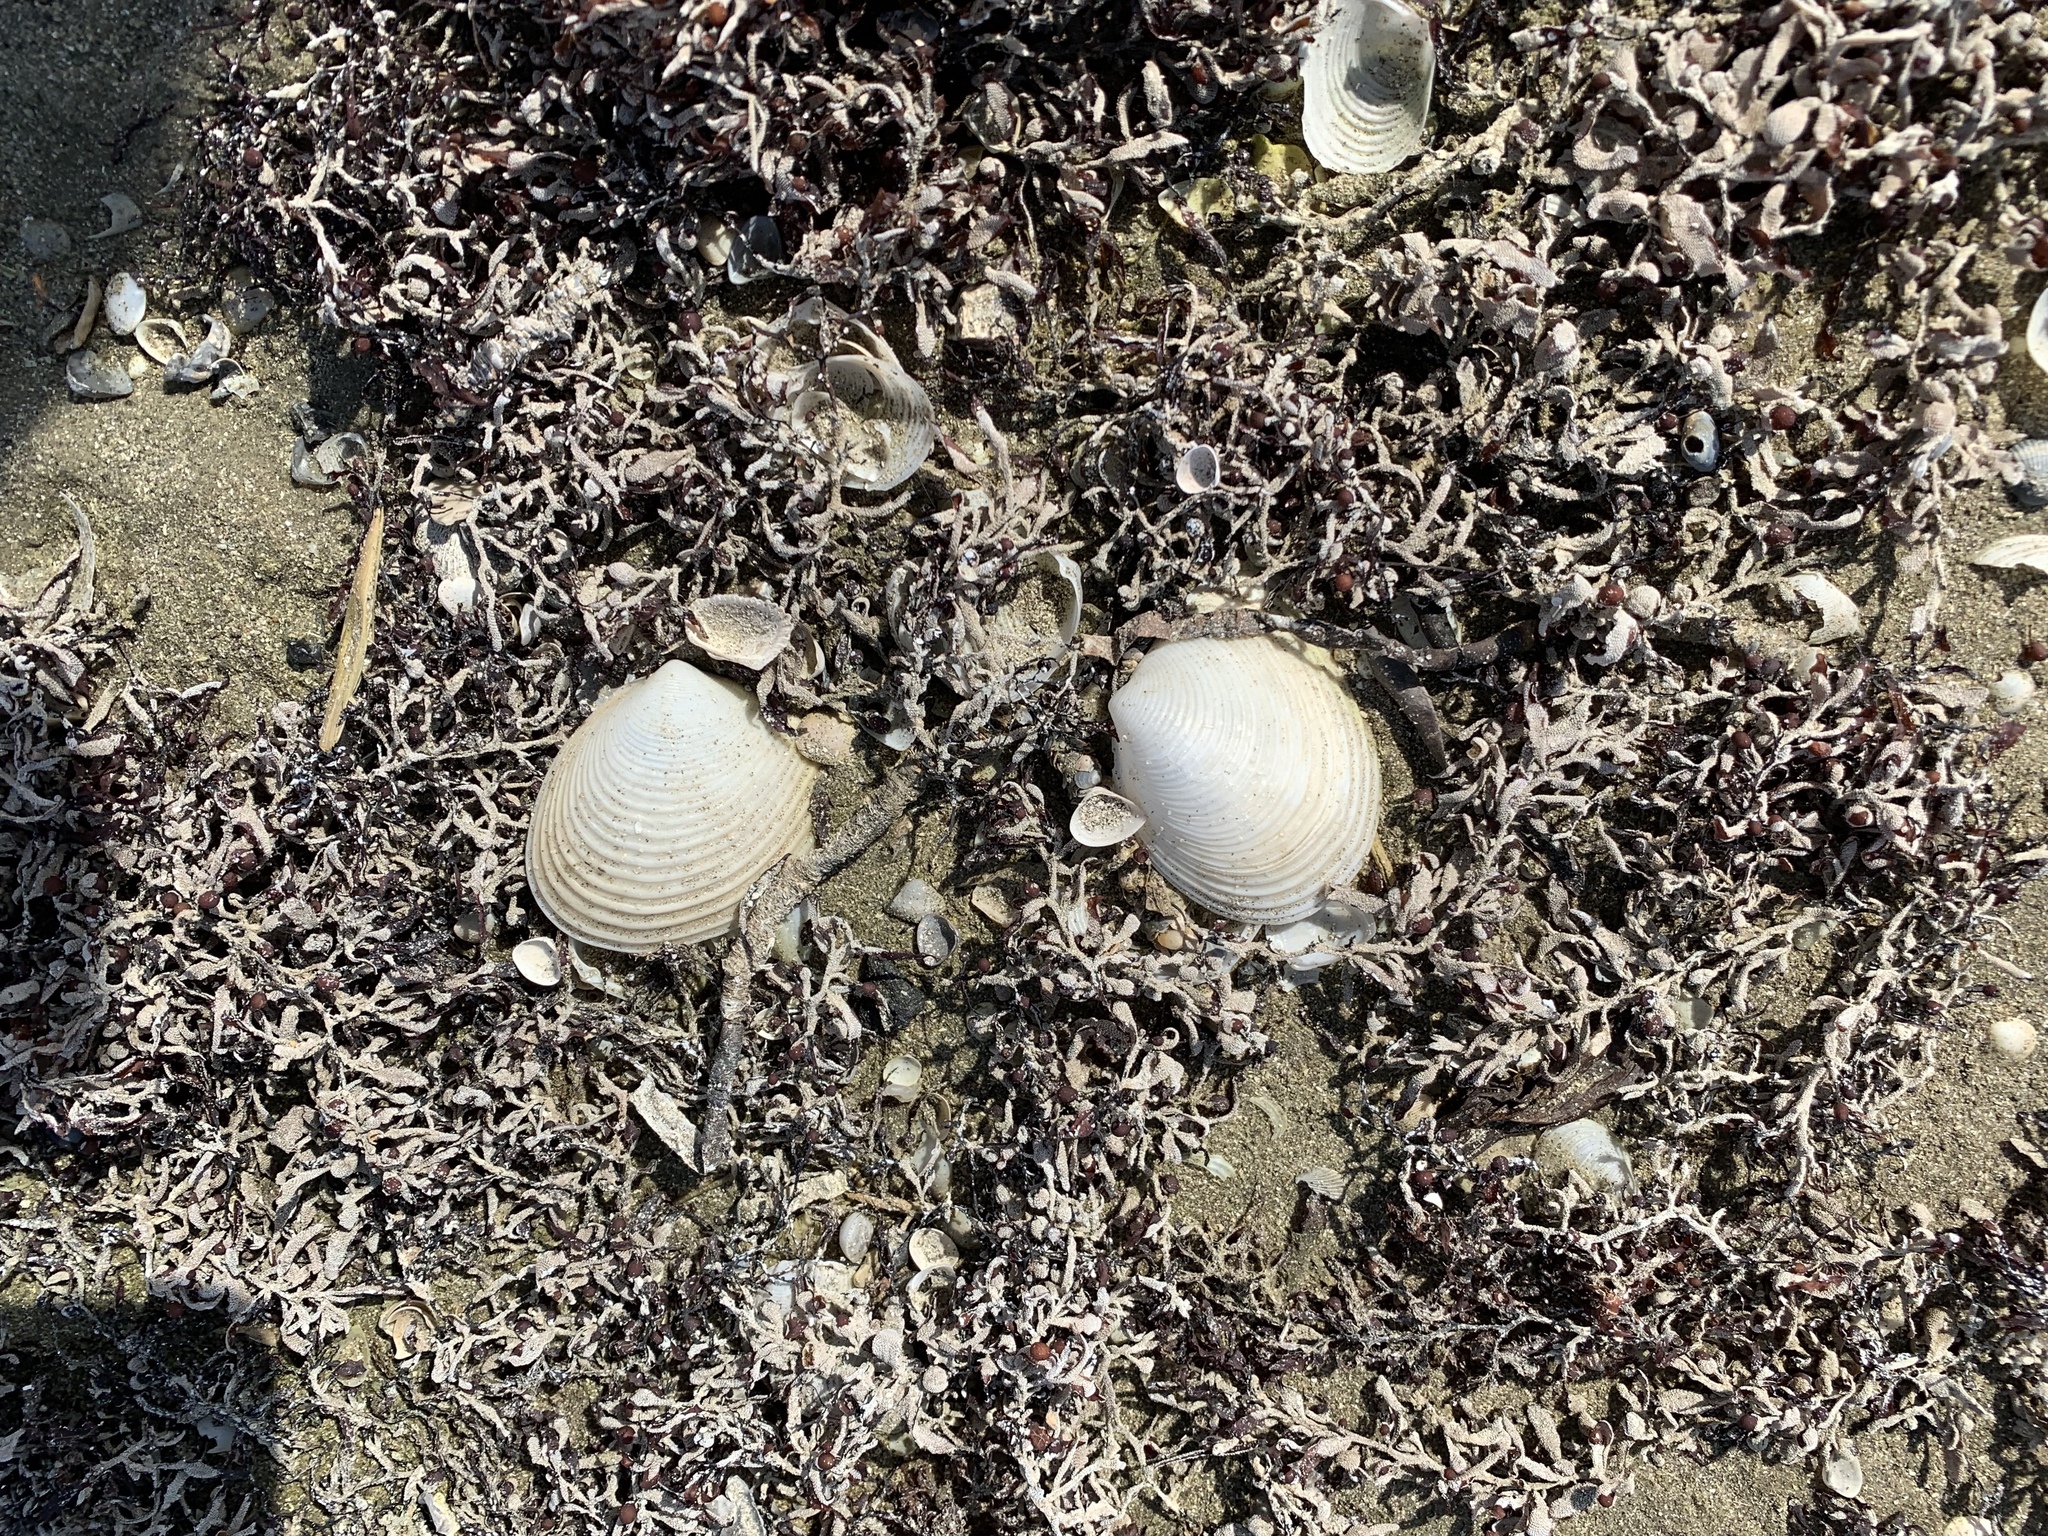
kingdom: Animalia
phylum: Mollusca
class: Bivalvia
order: Venerida
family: Anatinellidae
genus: Raeta
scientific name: Raeta plicatella
